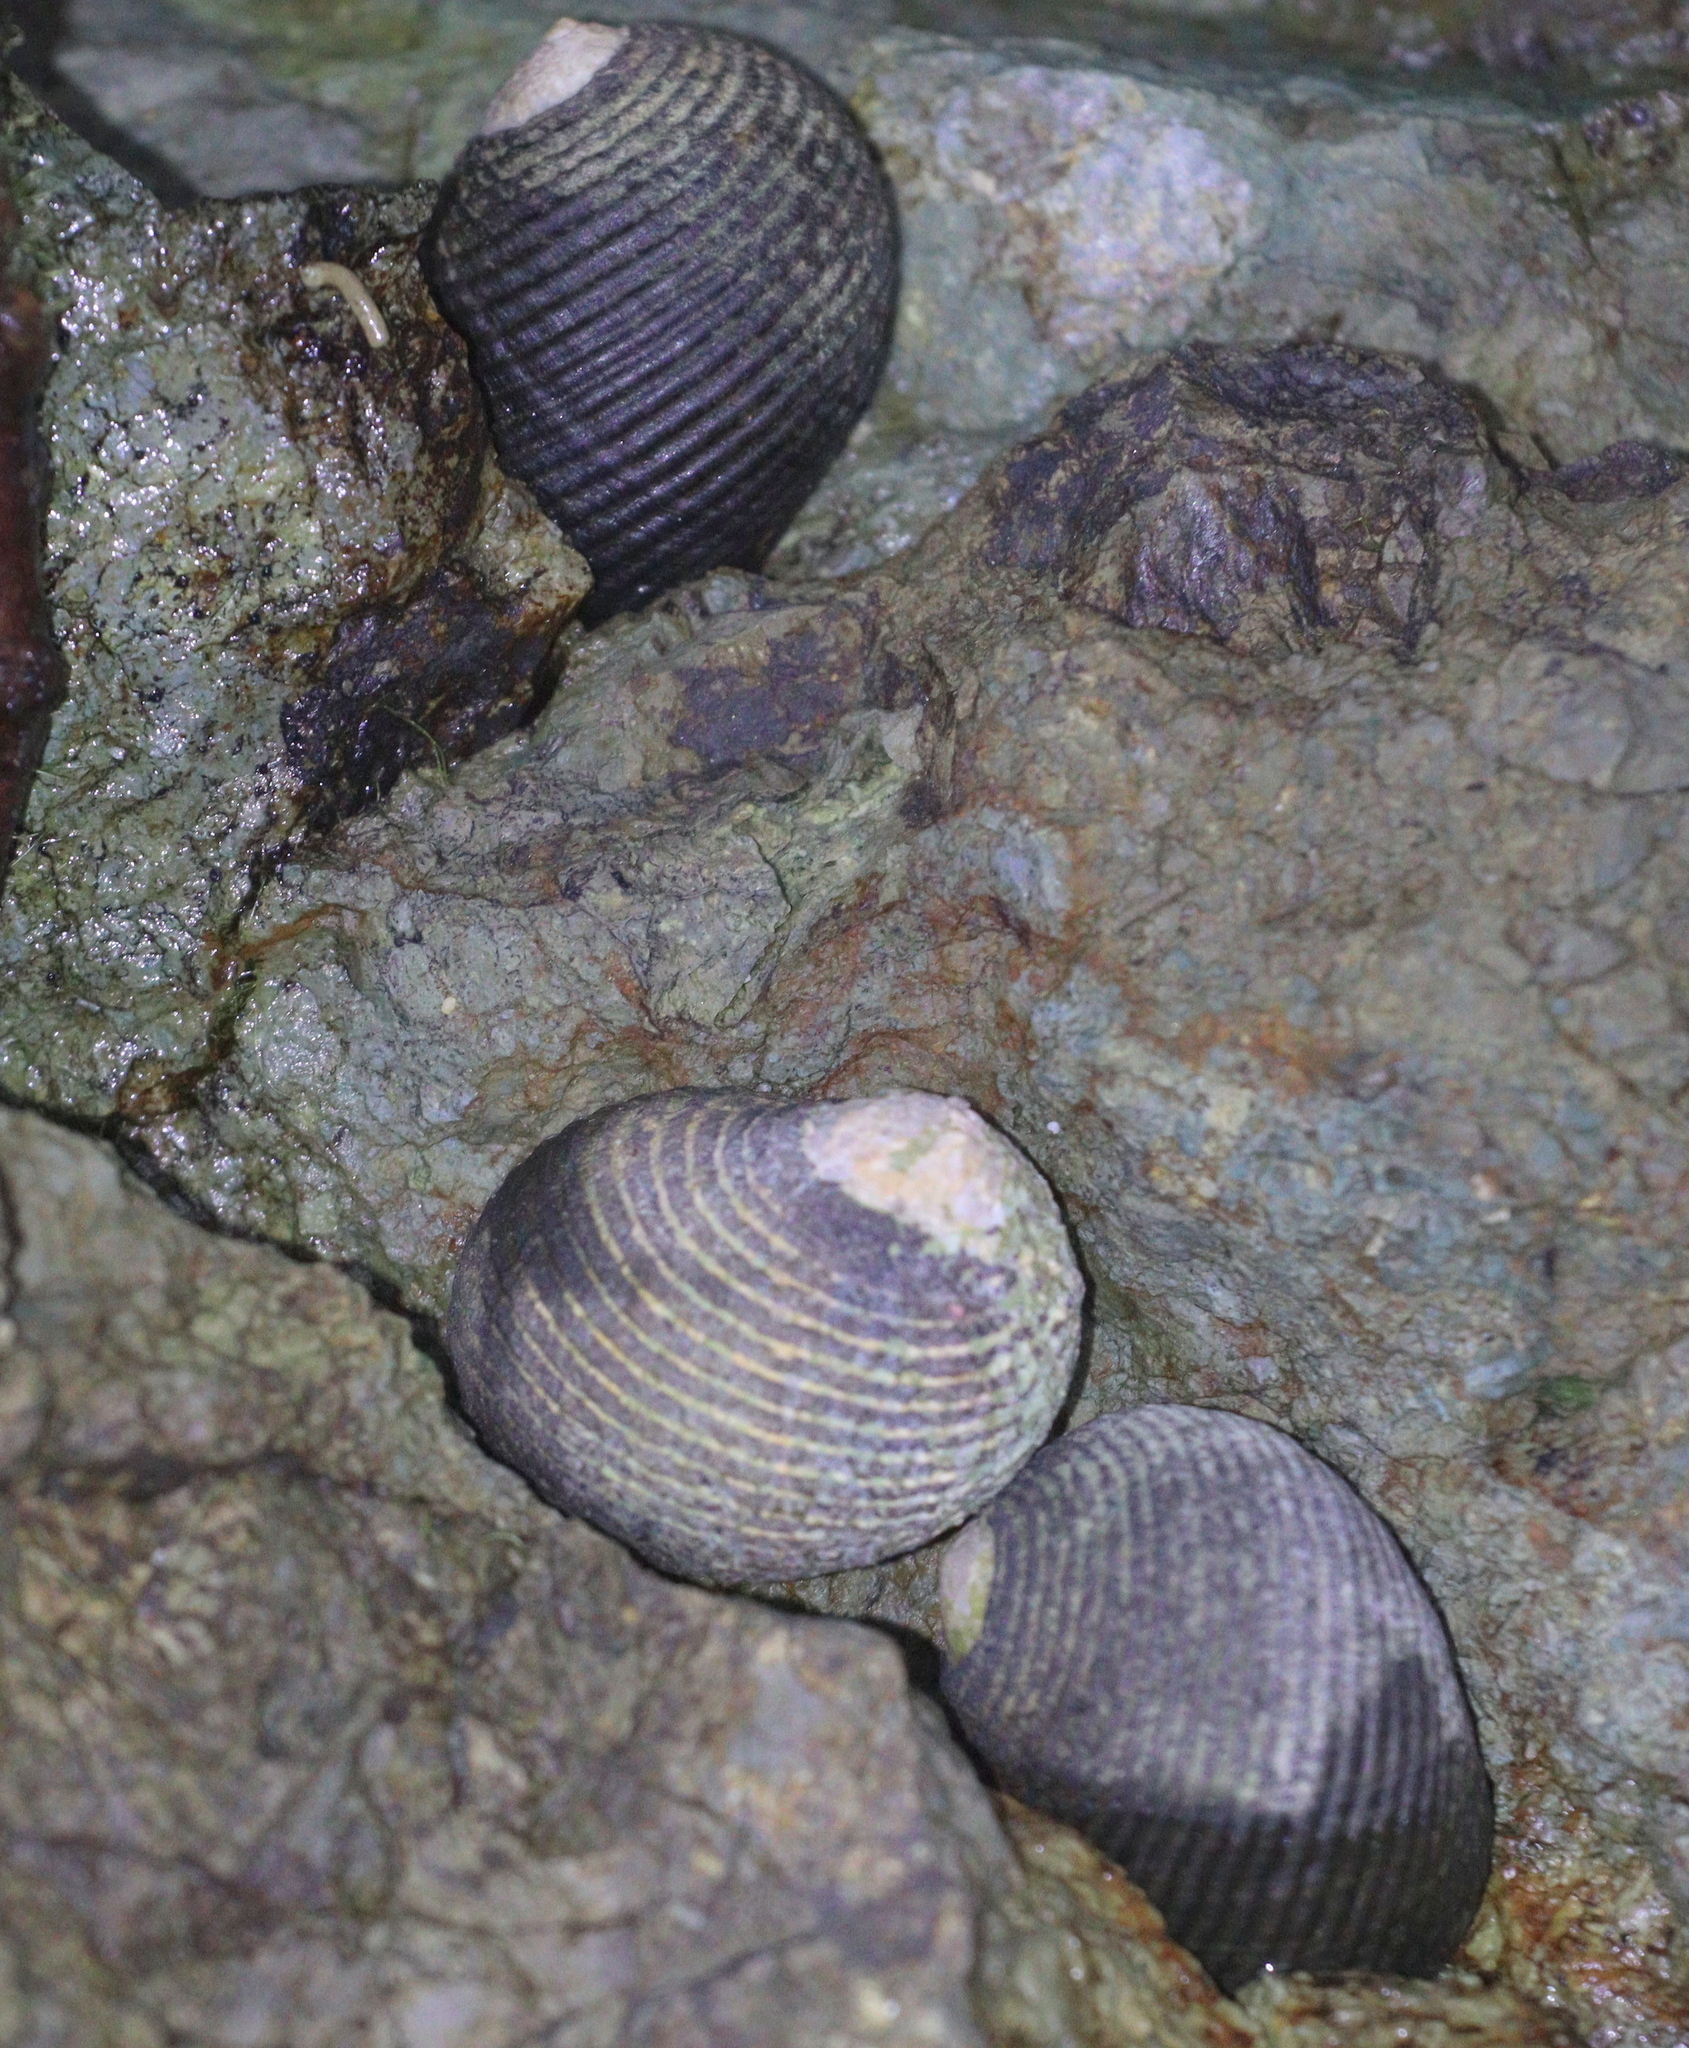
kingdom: Animalia
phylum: Mollusca
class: Gastropoda
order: Cycloneritida
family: Neritidae
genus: Nerita
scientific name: Nerita scabricosta
